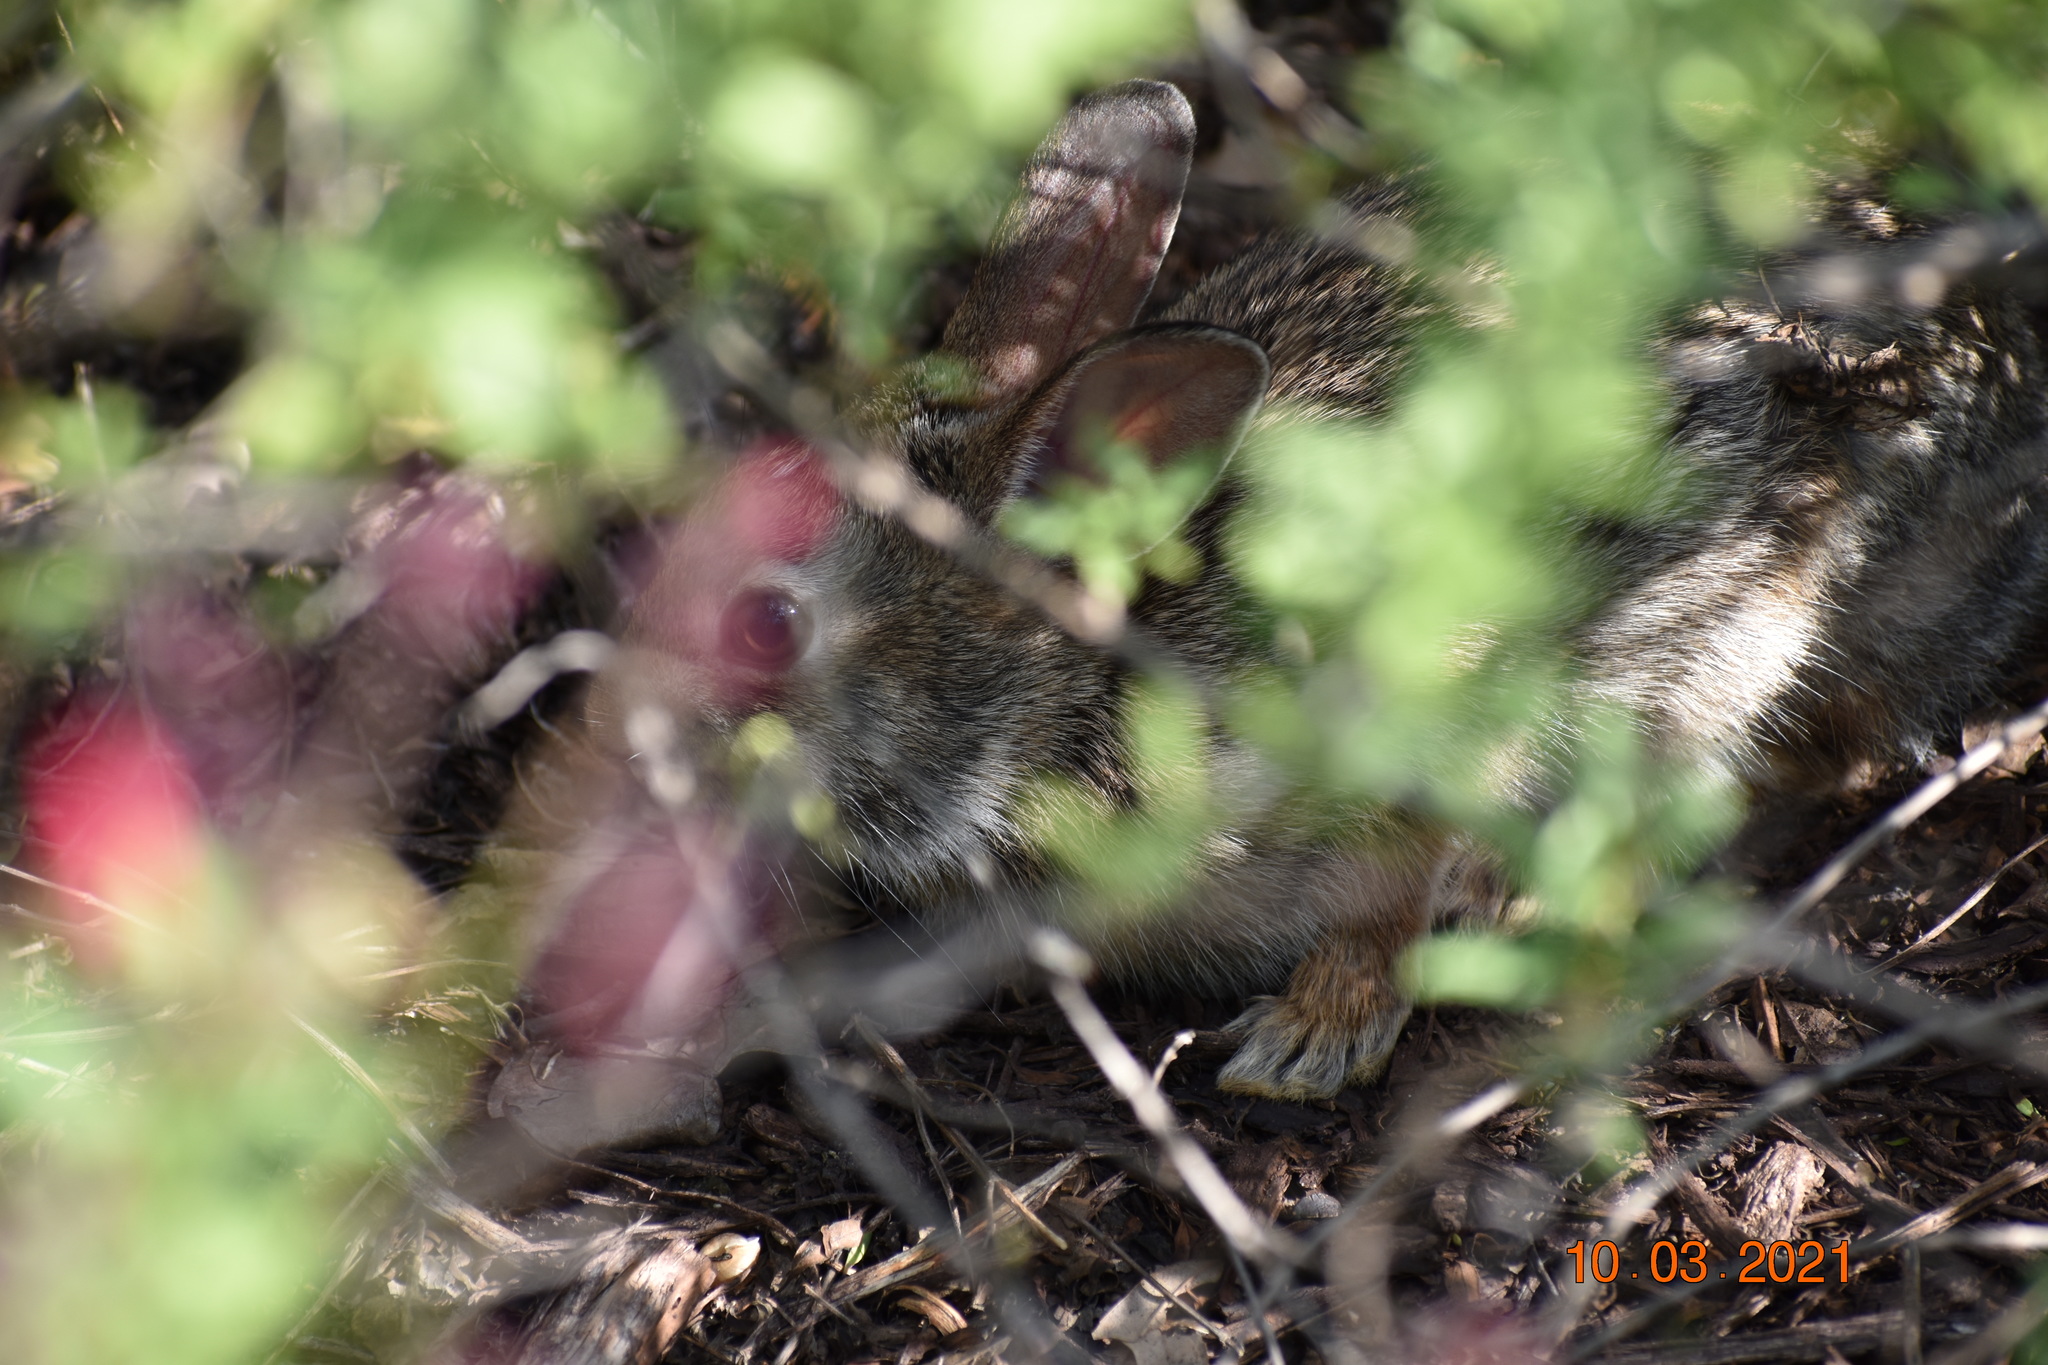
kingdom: Animalia
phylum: Chordata
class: Mammalia
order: Lagomorpha
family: Leporidae
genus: Sylvilagus
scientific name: Sylvilagus floridanus
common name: Eastern cottontail
